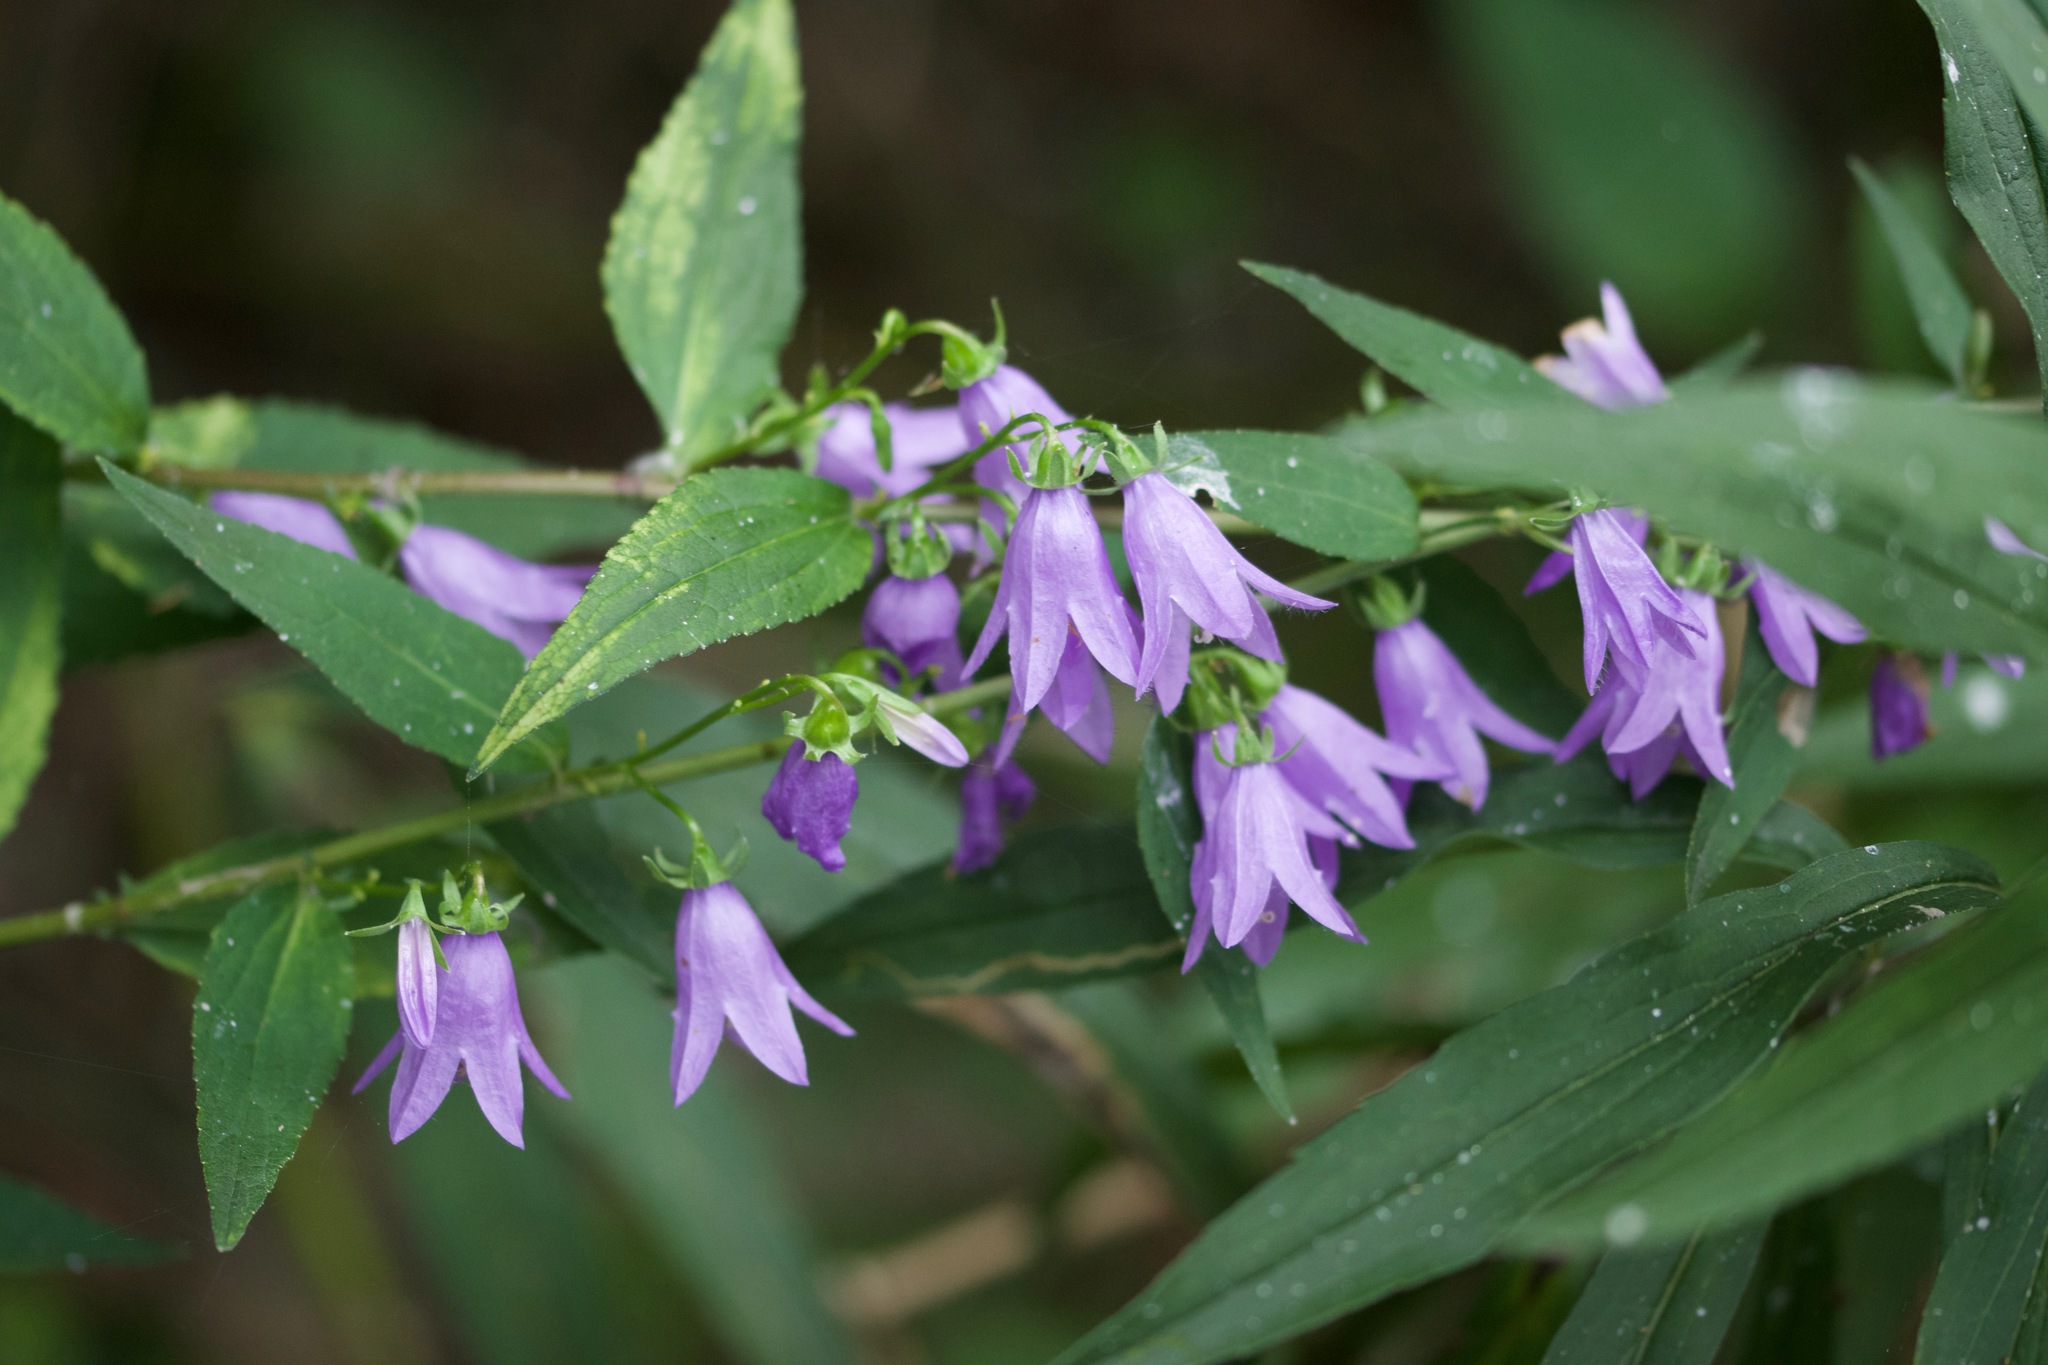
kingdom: Plantae
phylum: Tracheophyta
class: Magnoliopsida
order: Asterales
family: Campanulaceae
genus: Campanula
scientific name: Campanula rapunculoides
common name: Creeping bellflower
